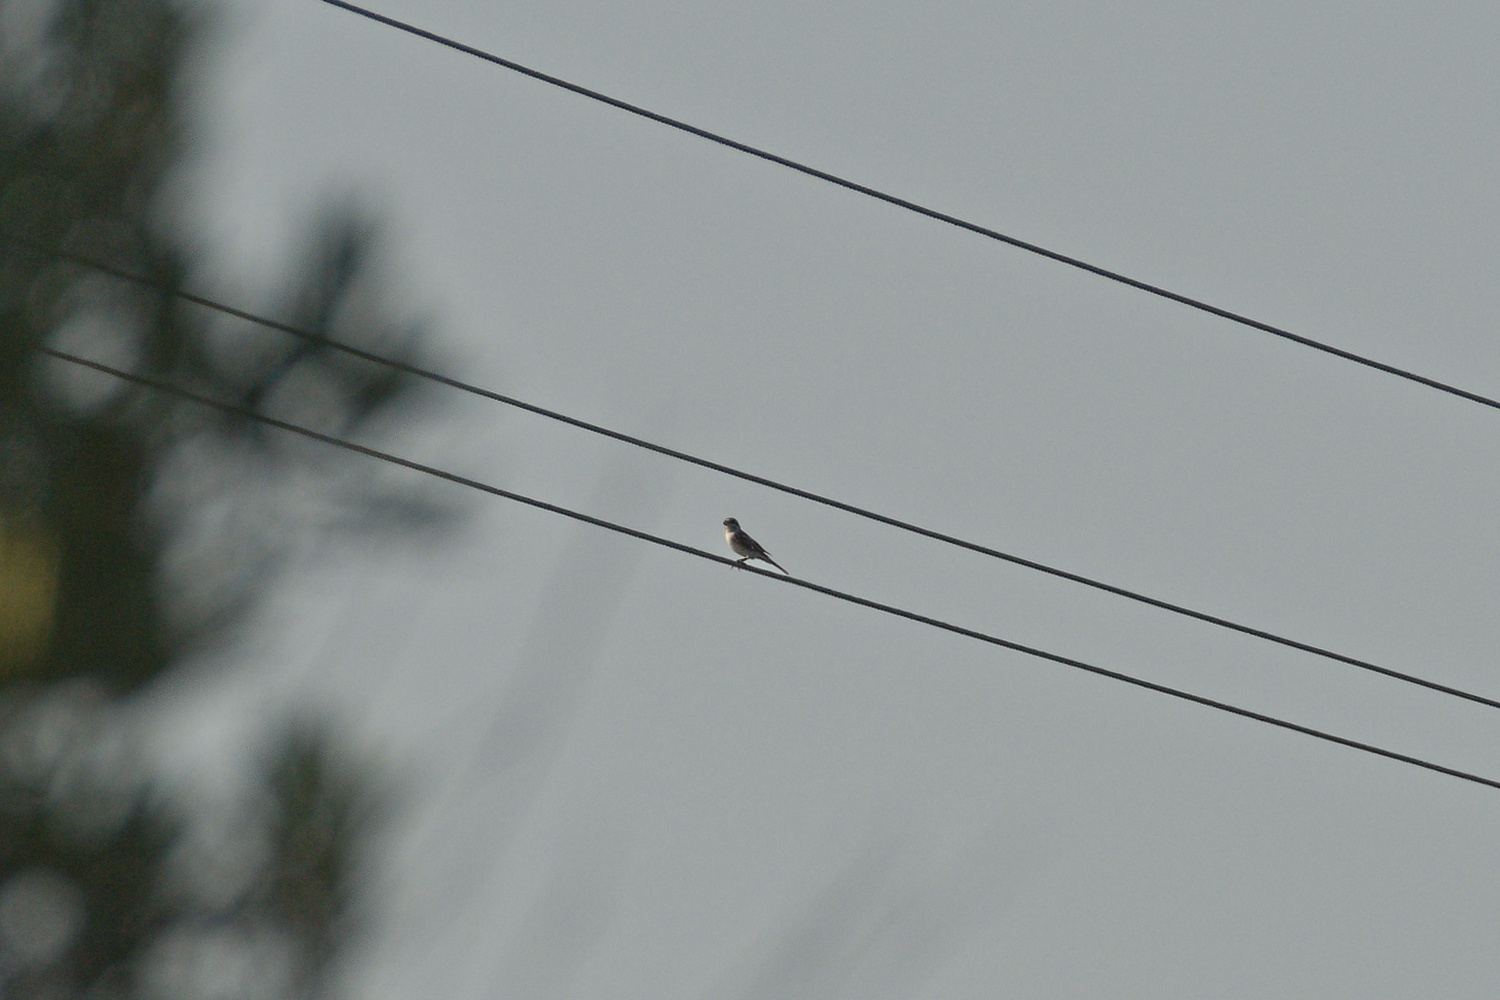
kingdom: Animalia
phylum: Chordata
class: Aves
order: Passeriformes
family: Laniidae
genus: Lanius
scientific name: Lanius senator
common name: Woodchat shrike
